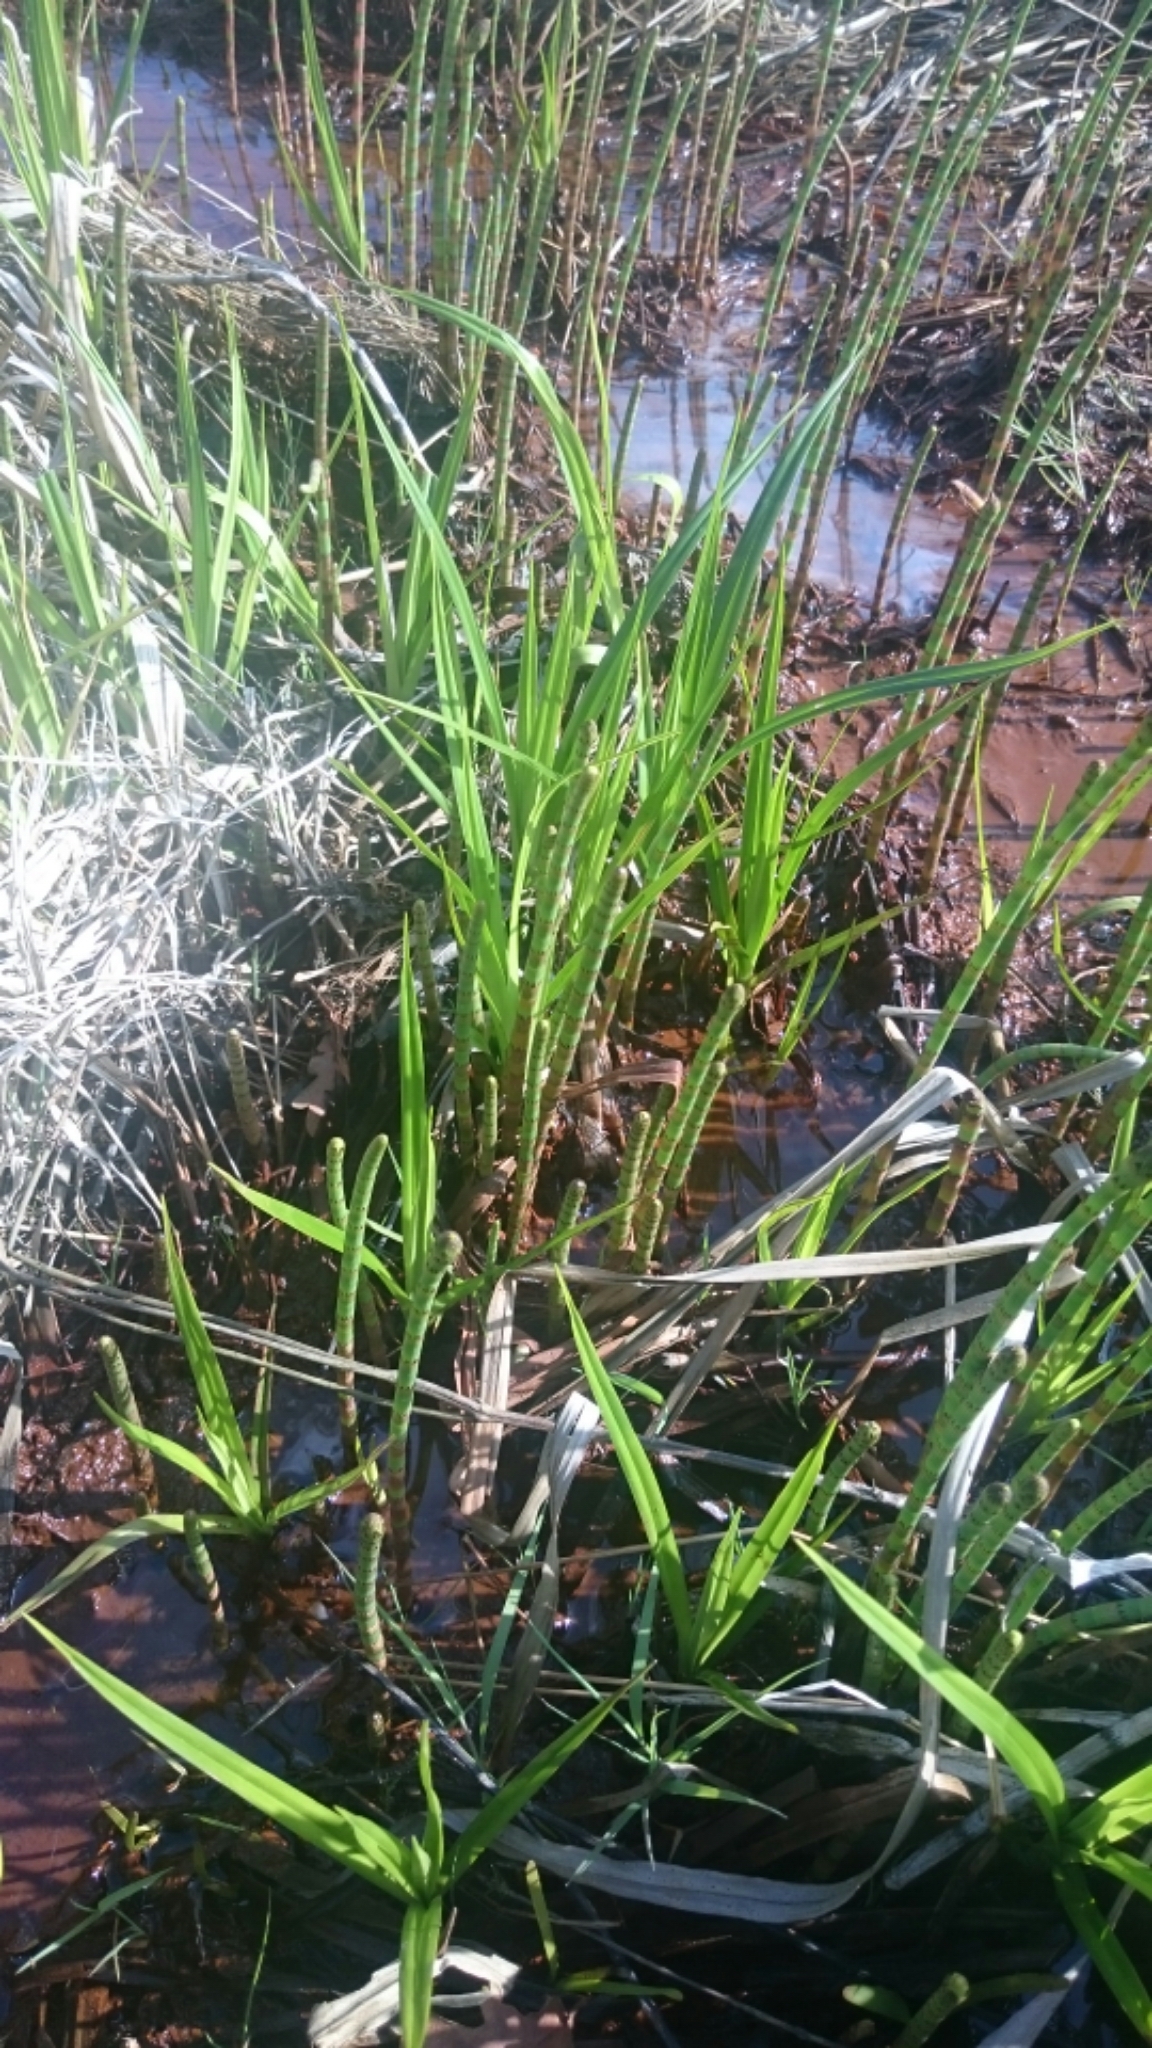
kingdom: Plantae
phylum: Tracheophyta
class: Liliopsida
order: Poales
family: Cyperaceae
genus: Scirpus
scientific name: Scirpus sylvaticus
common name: Wood club-rush
